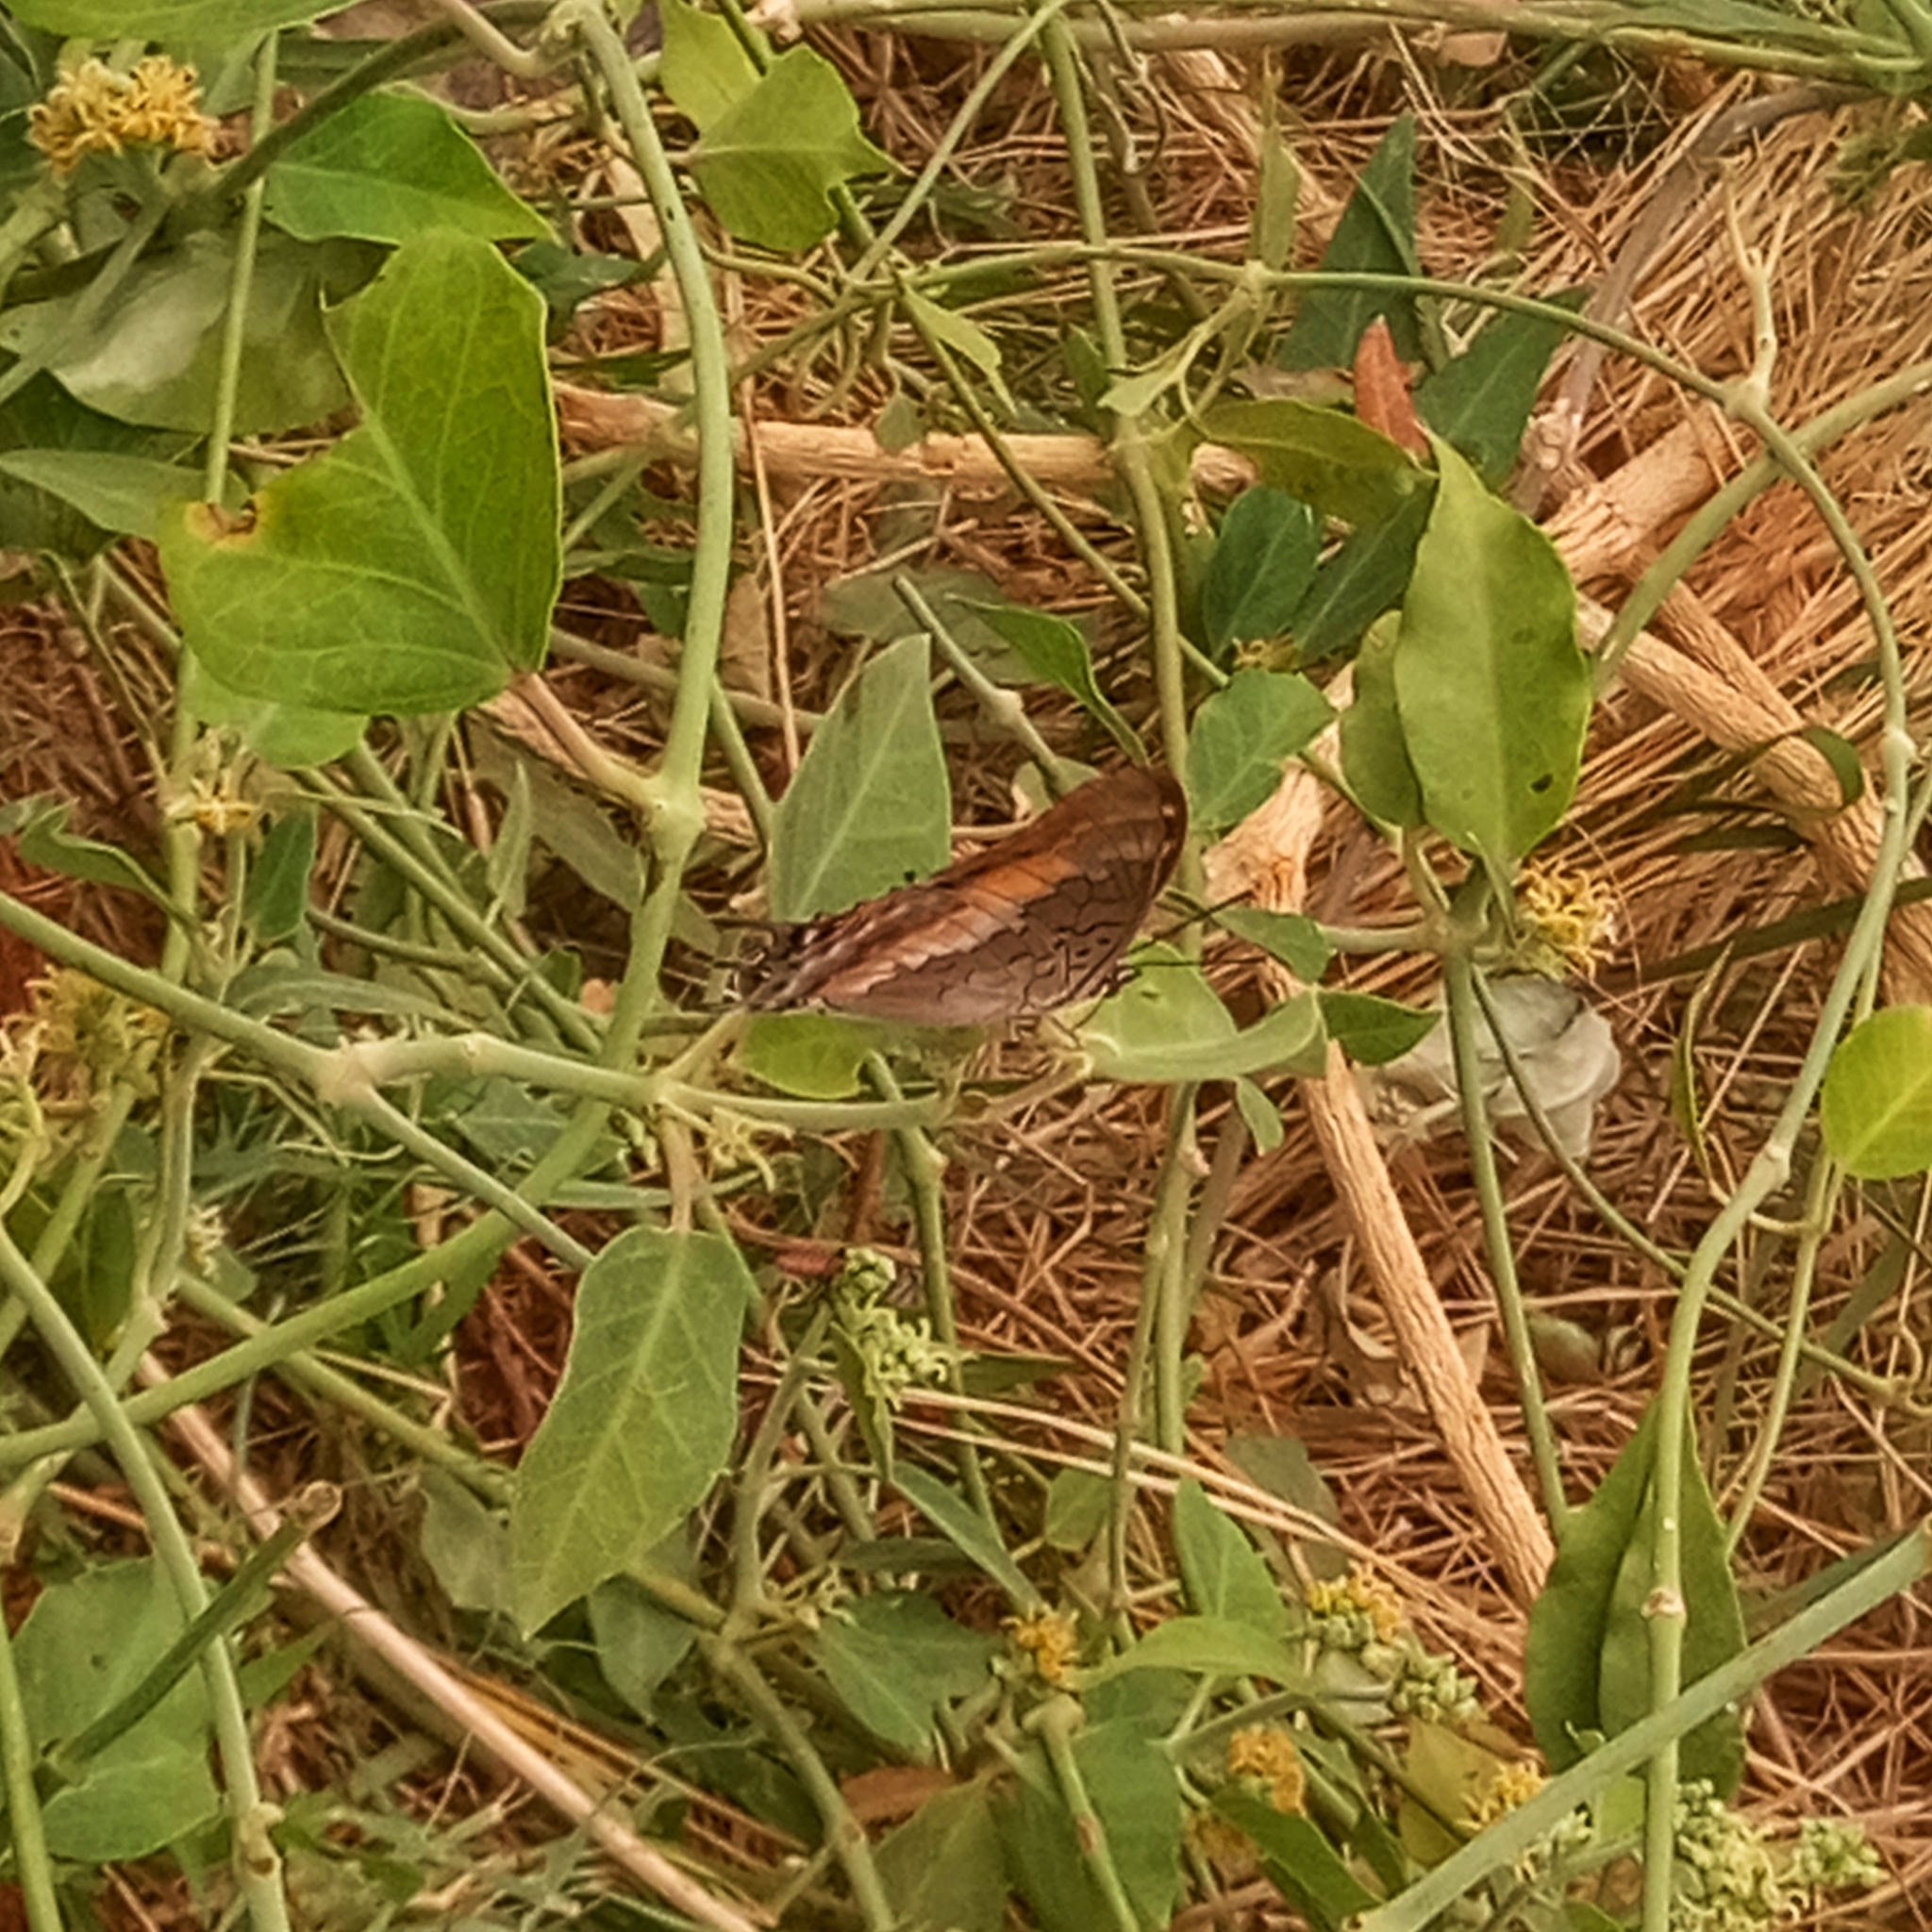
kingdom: Animalia
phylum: Arthropoda
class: Insecta
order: Lepidoptera
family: Nymphalidae
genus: Charaxes
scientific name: Charaxes viola
